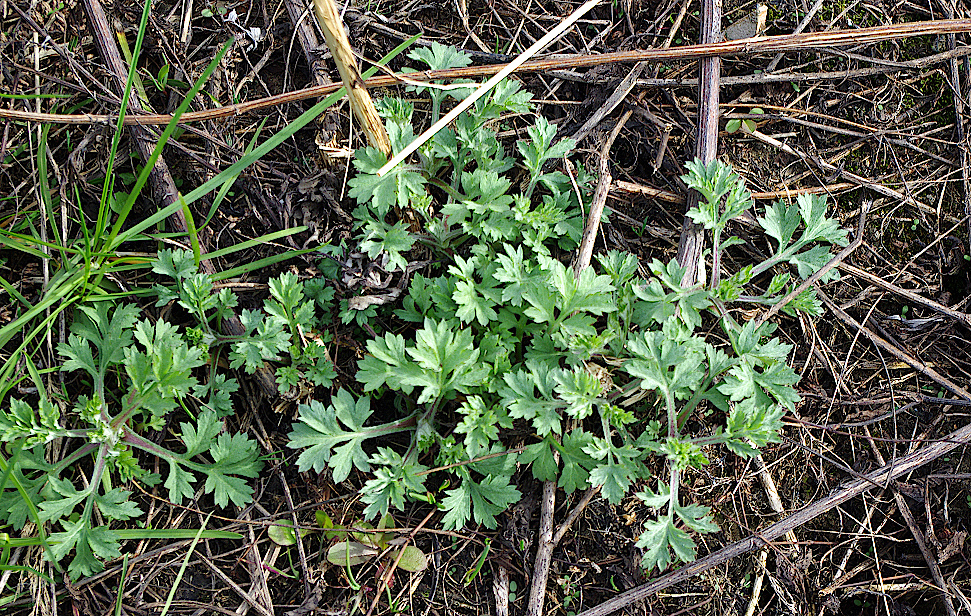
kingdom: Plantae
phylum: Tracheophyta
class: Magnoliopsida
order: Asterales
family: Asteraceae
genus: Artemisia
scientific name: Artemisia vulgaris
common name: Mugwort
